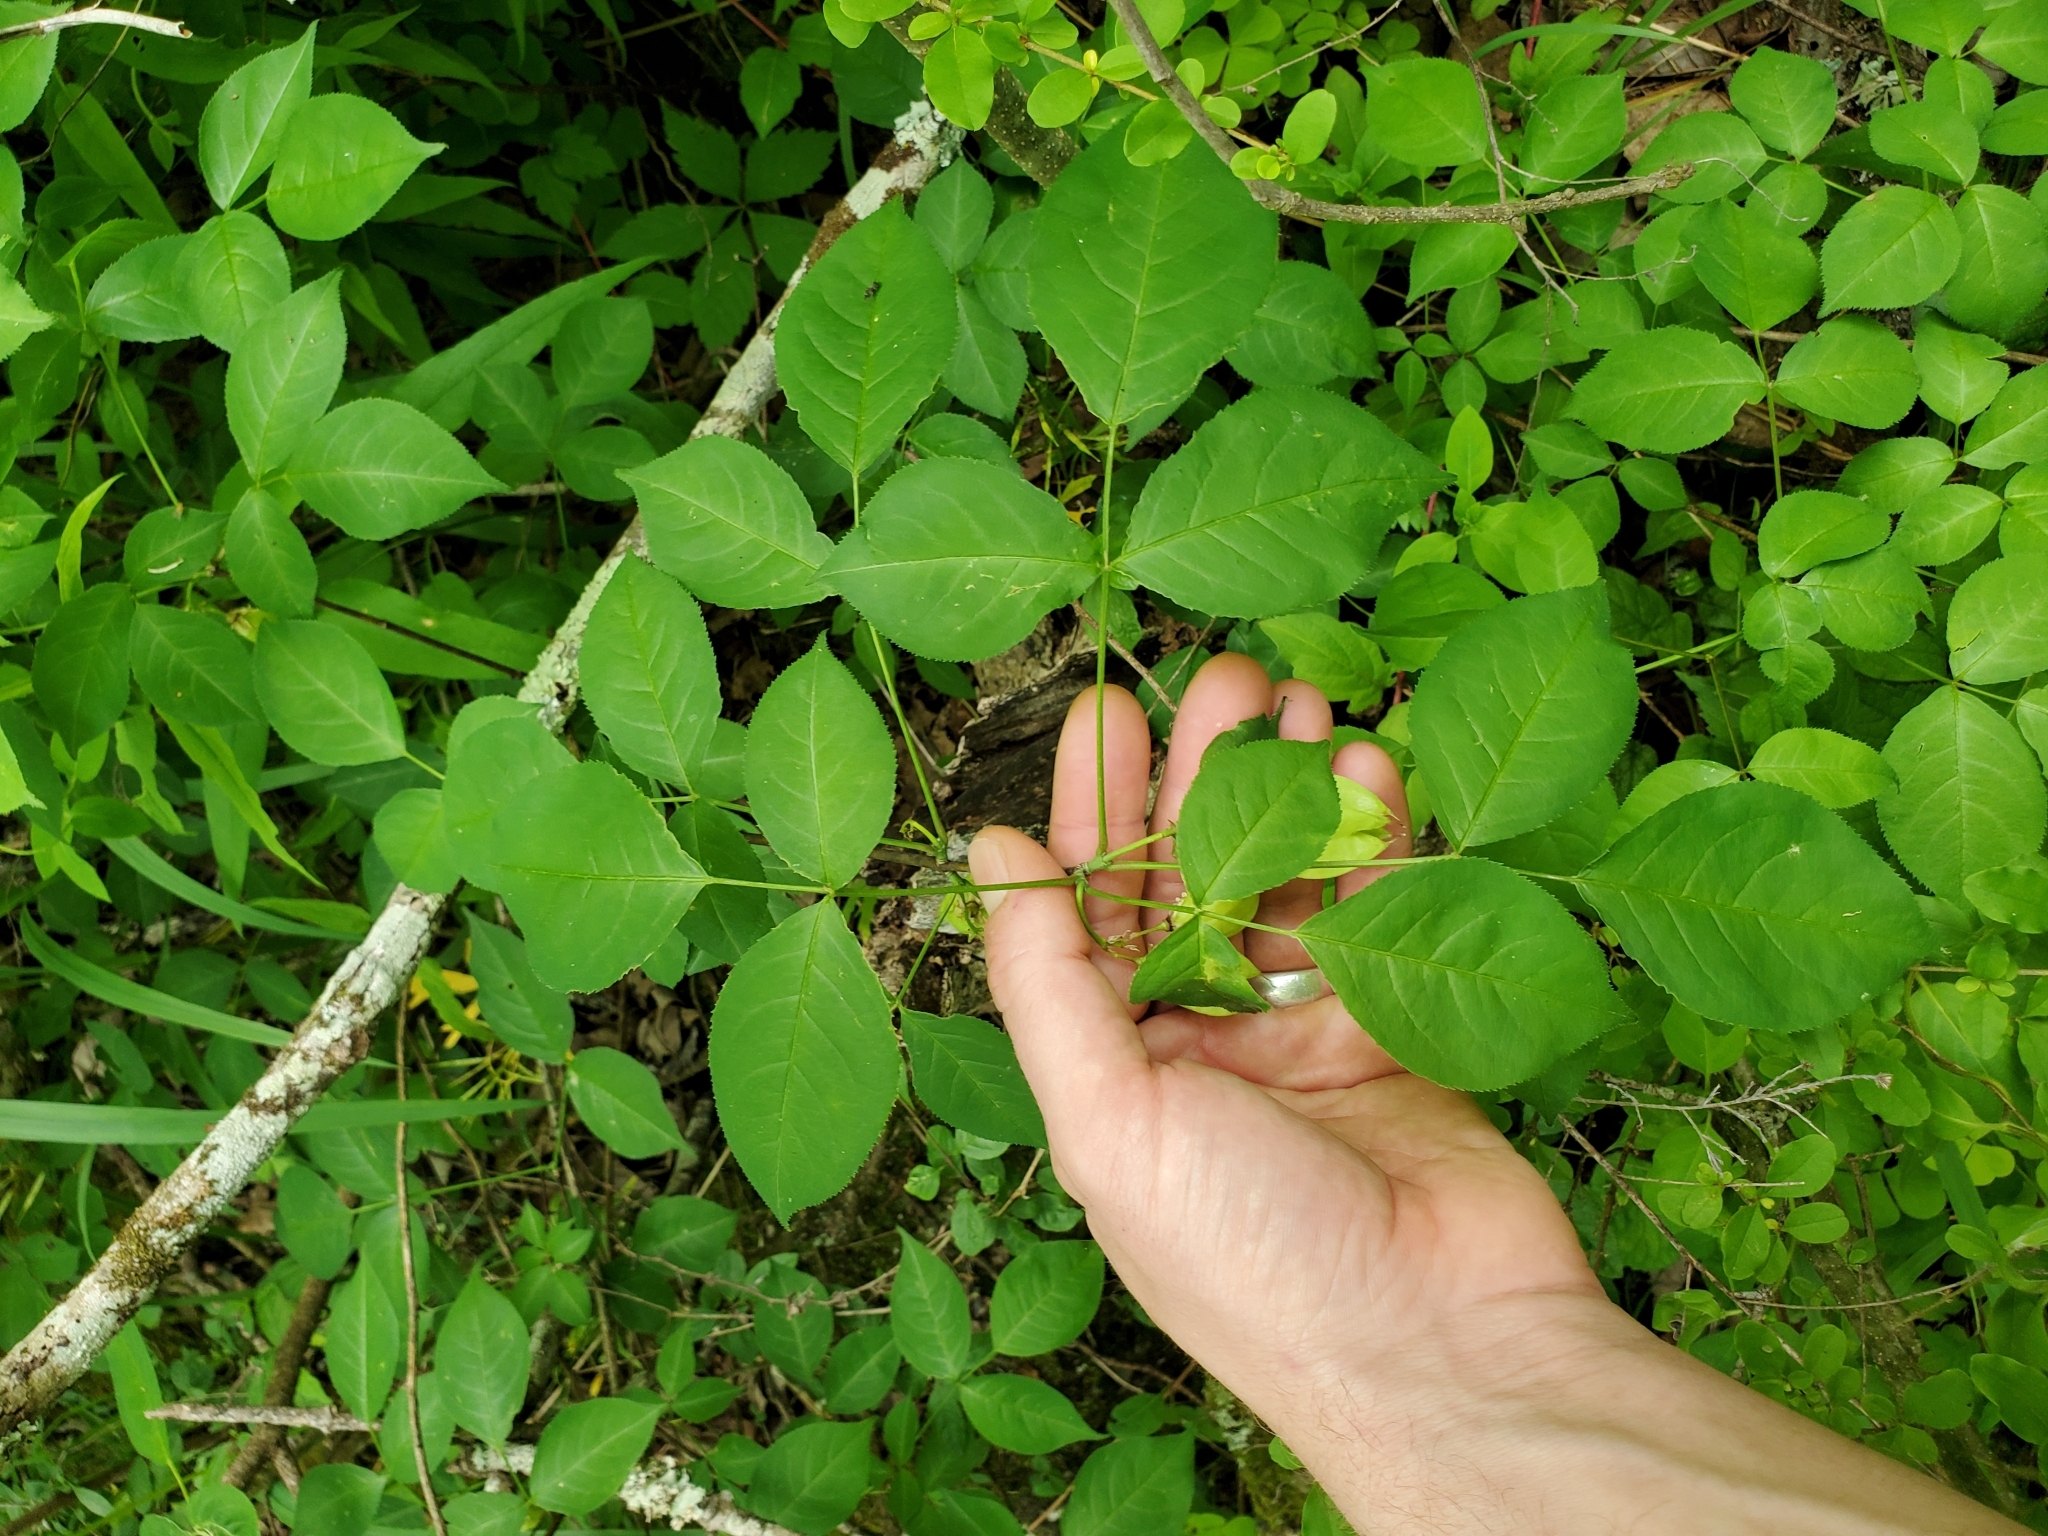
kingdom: Plantae
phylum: Tracheophyta
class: Magnoliopsida
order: Crossosomatales
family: Staphyleaceae
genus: Staphylea
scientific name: Staphylea trifolia
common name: American bladdernut
